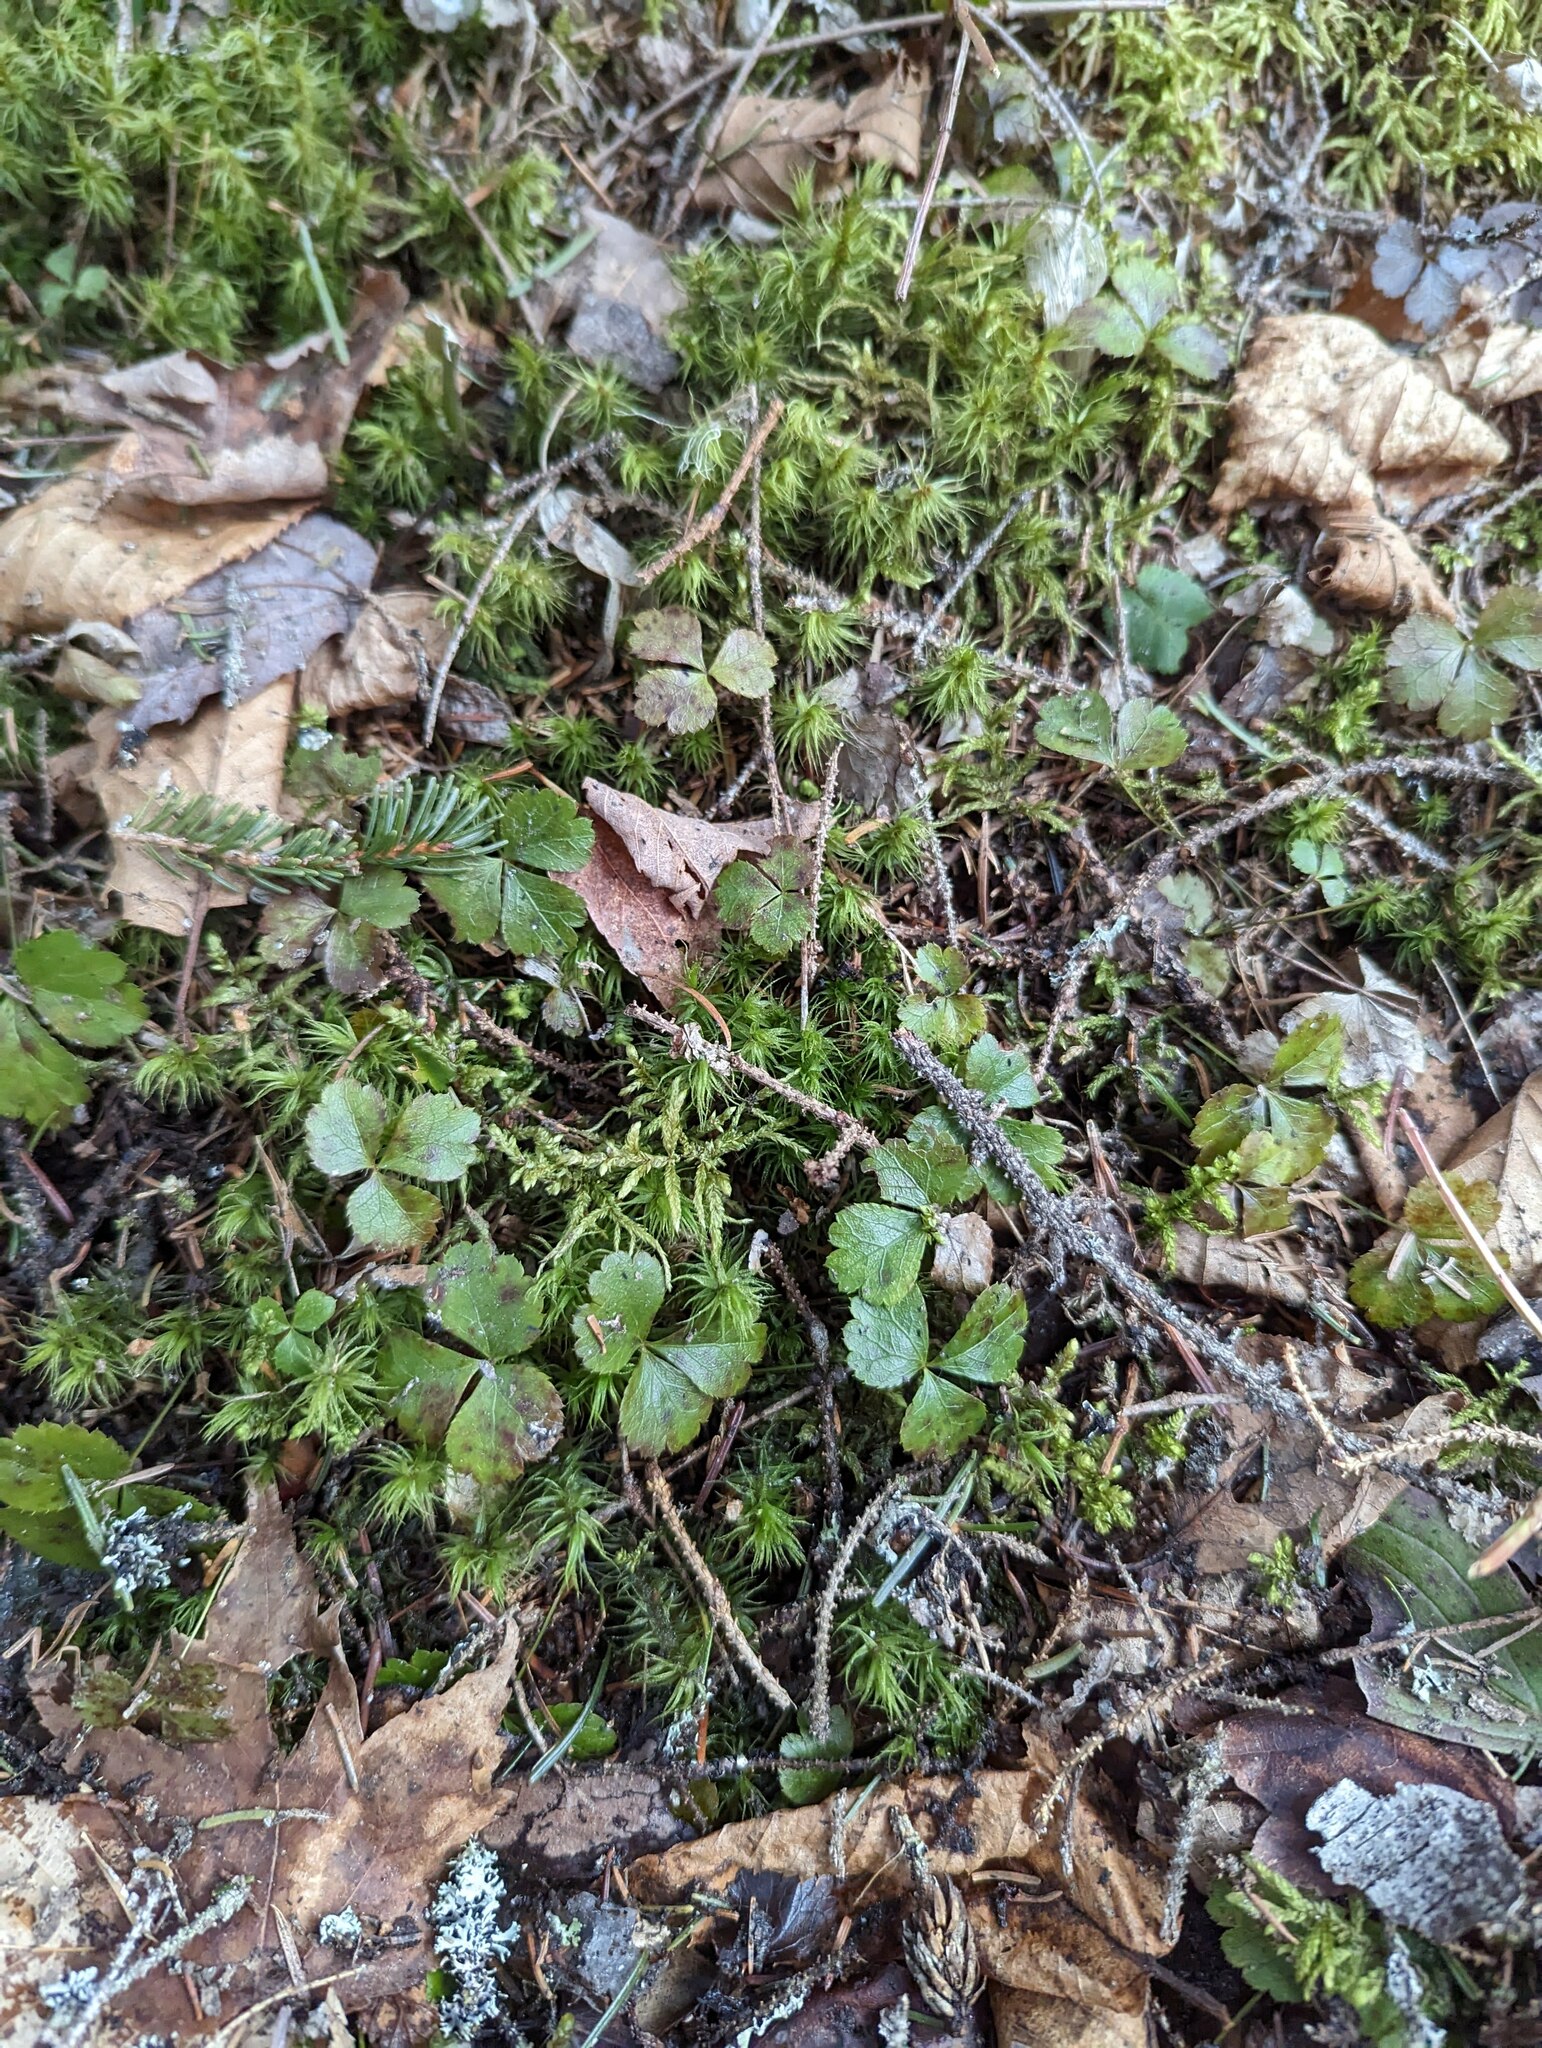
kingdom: Plantae
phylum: Tracheophyta
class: Magnoliopsida
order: Ranunculales
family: Ranunculaceae
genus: Coptis
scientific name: Coptis trifolia
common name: Canker-root
